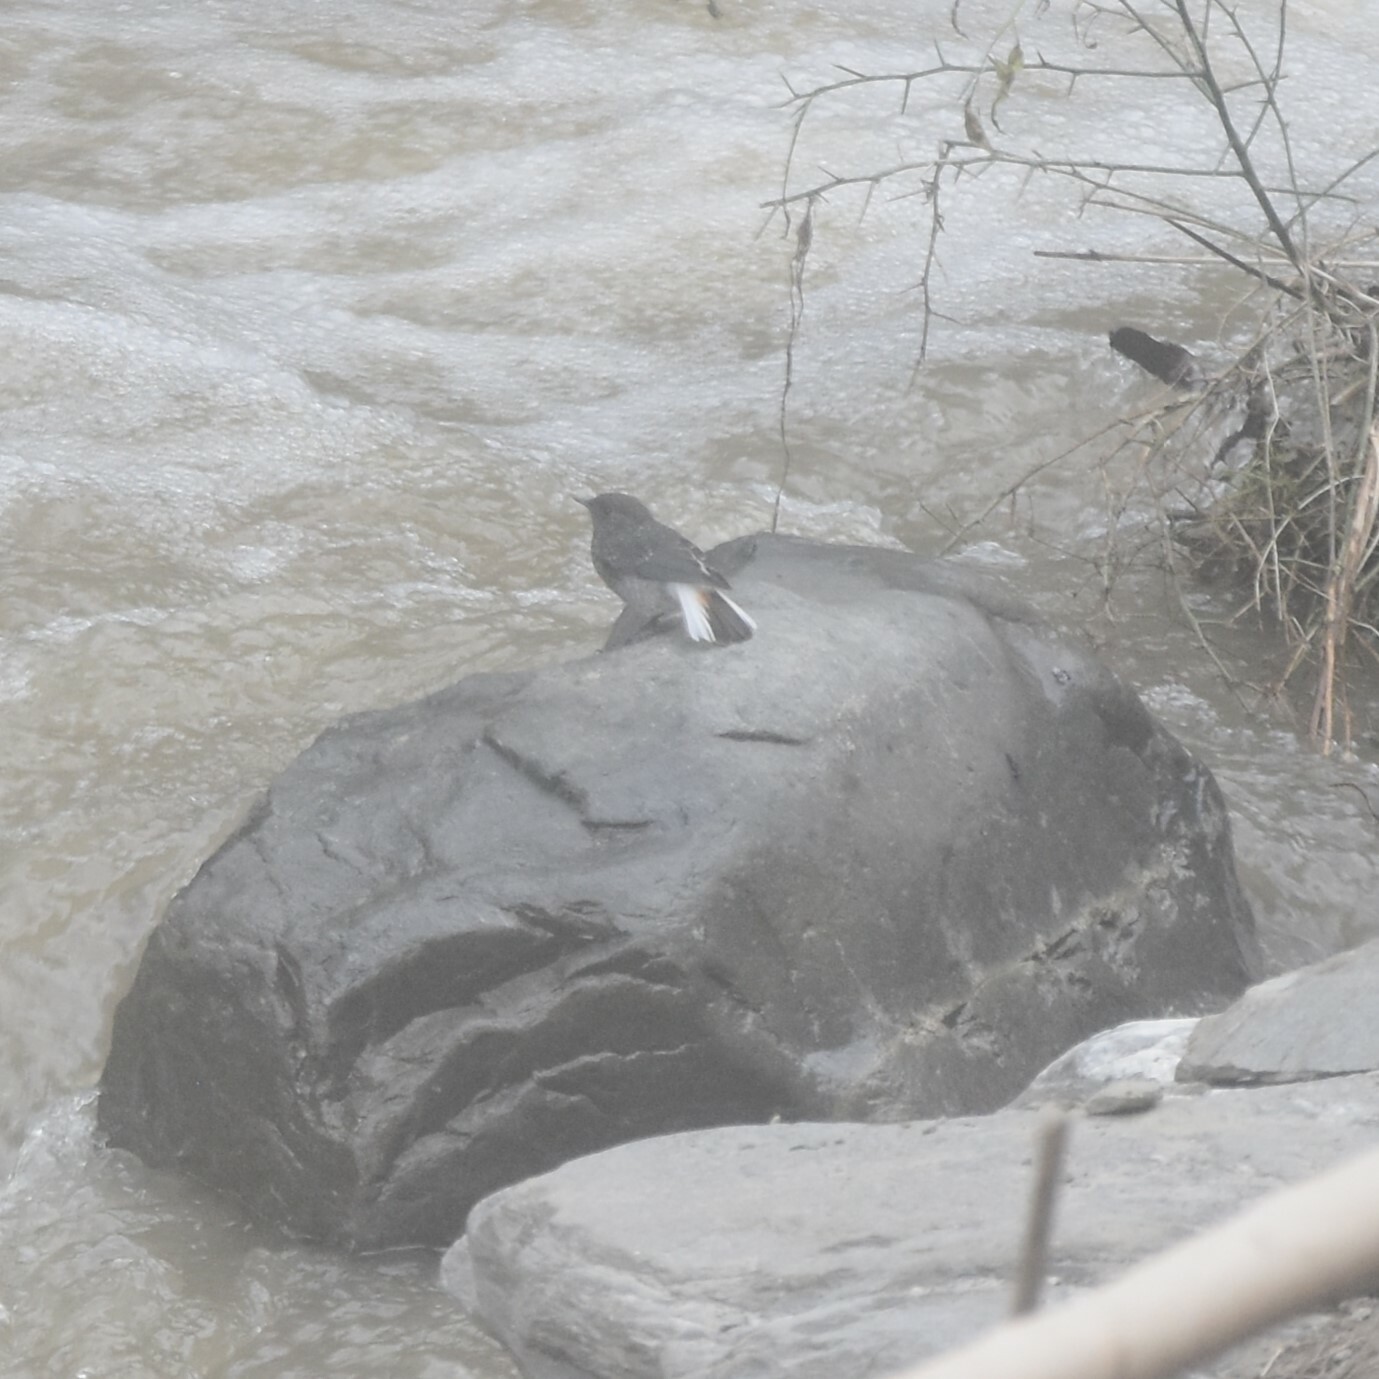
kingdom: Animalia
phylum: Chordata
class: Aves
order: Passeriformes
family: Muscicapidae
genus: Phoenicurus
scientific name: Phoenicurus fuliginosus
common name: Plumbeous water redstart
